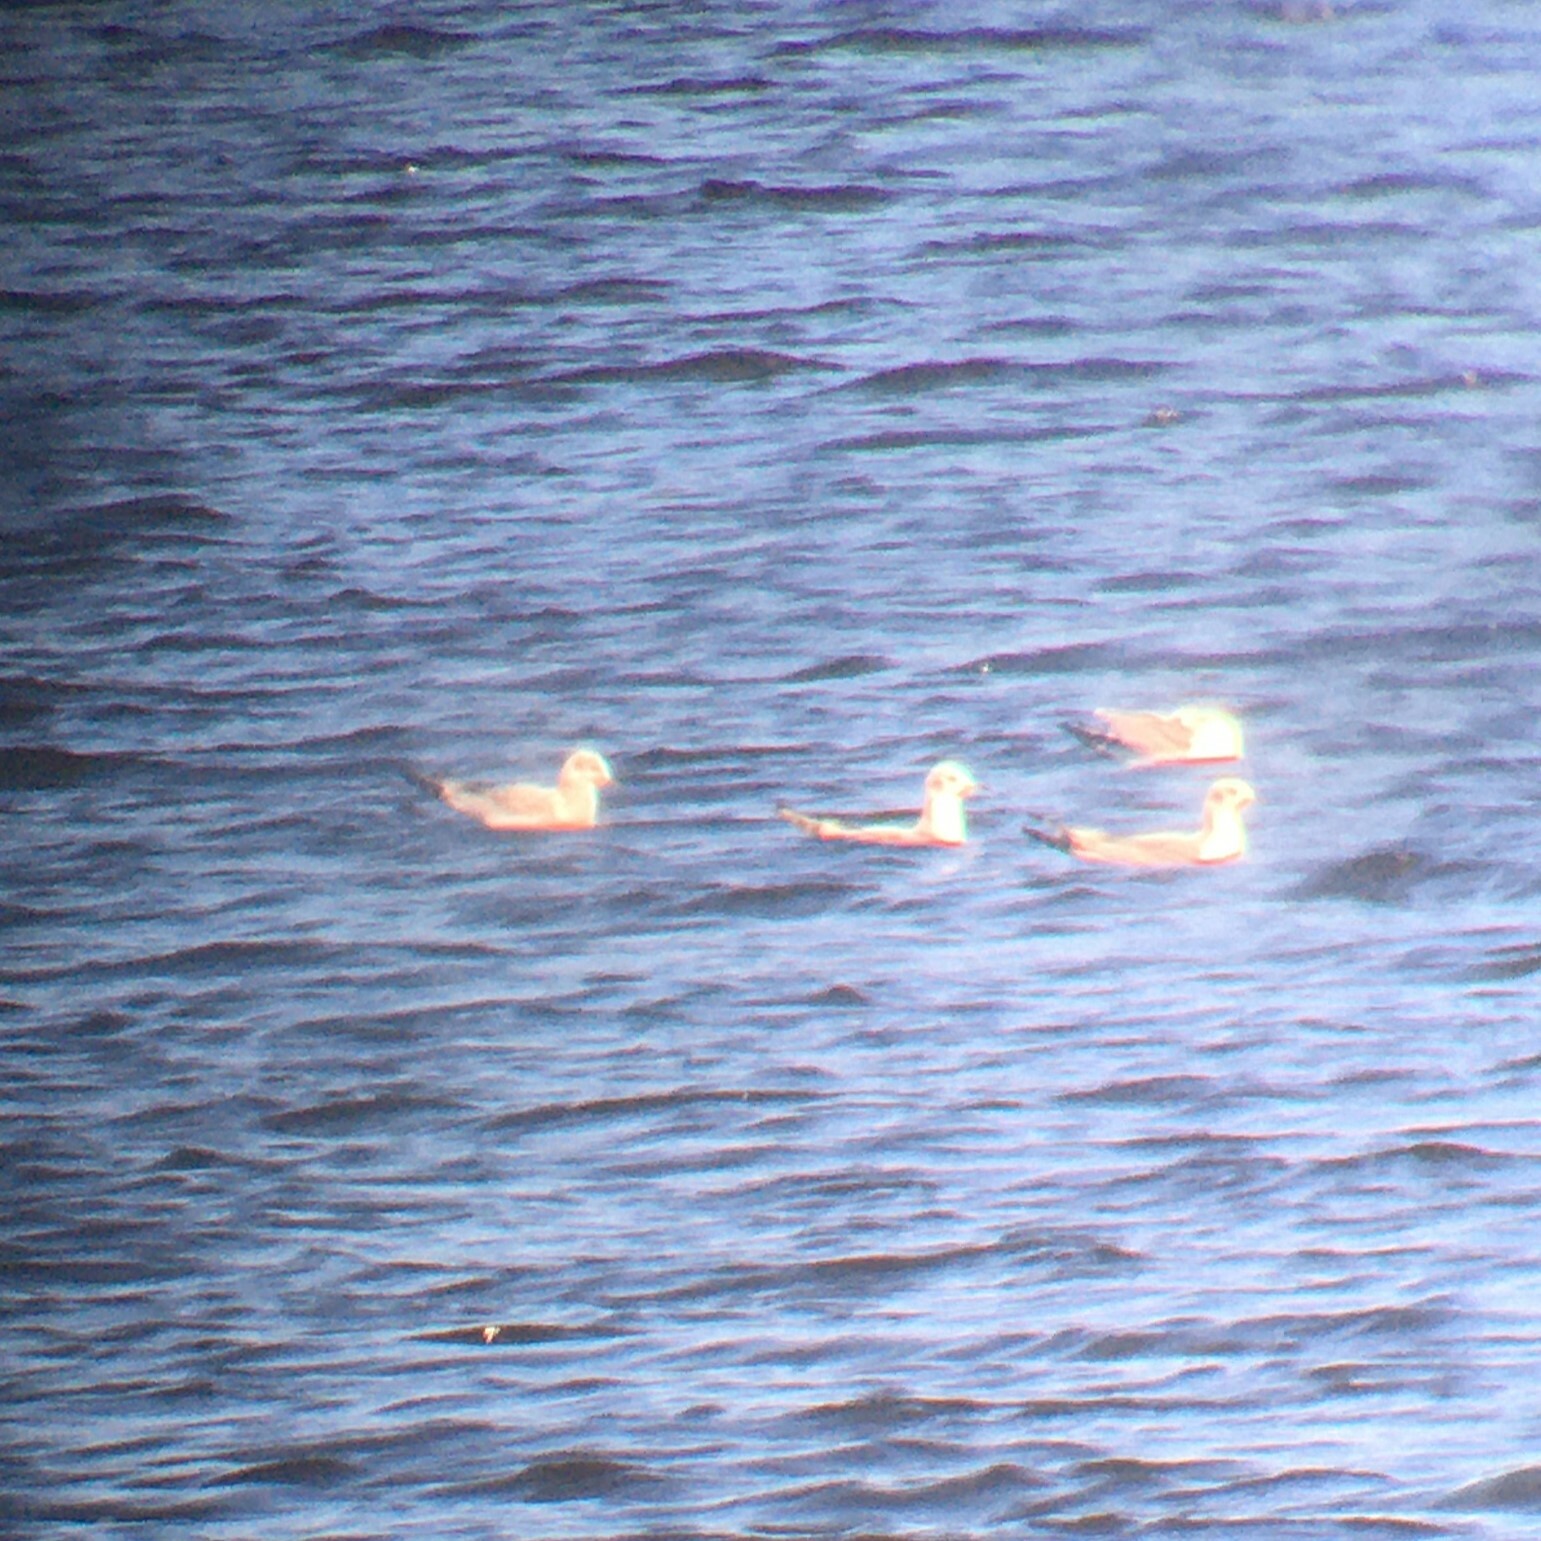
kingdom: Animalia
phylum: Chordata
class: Aves
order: Charadriiformes
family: Laridae
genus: Chroicocephalus
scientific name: Chroicocephalus philadelphia
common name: Bonaparte's gull
